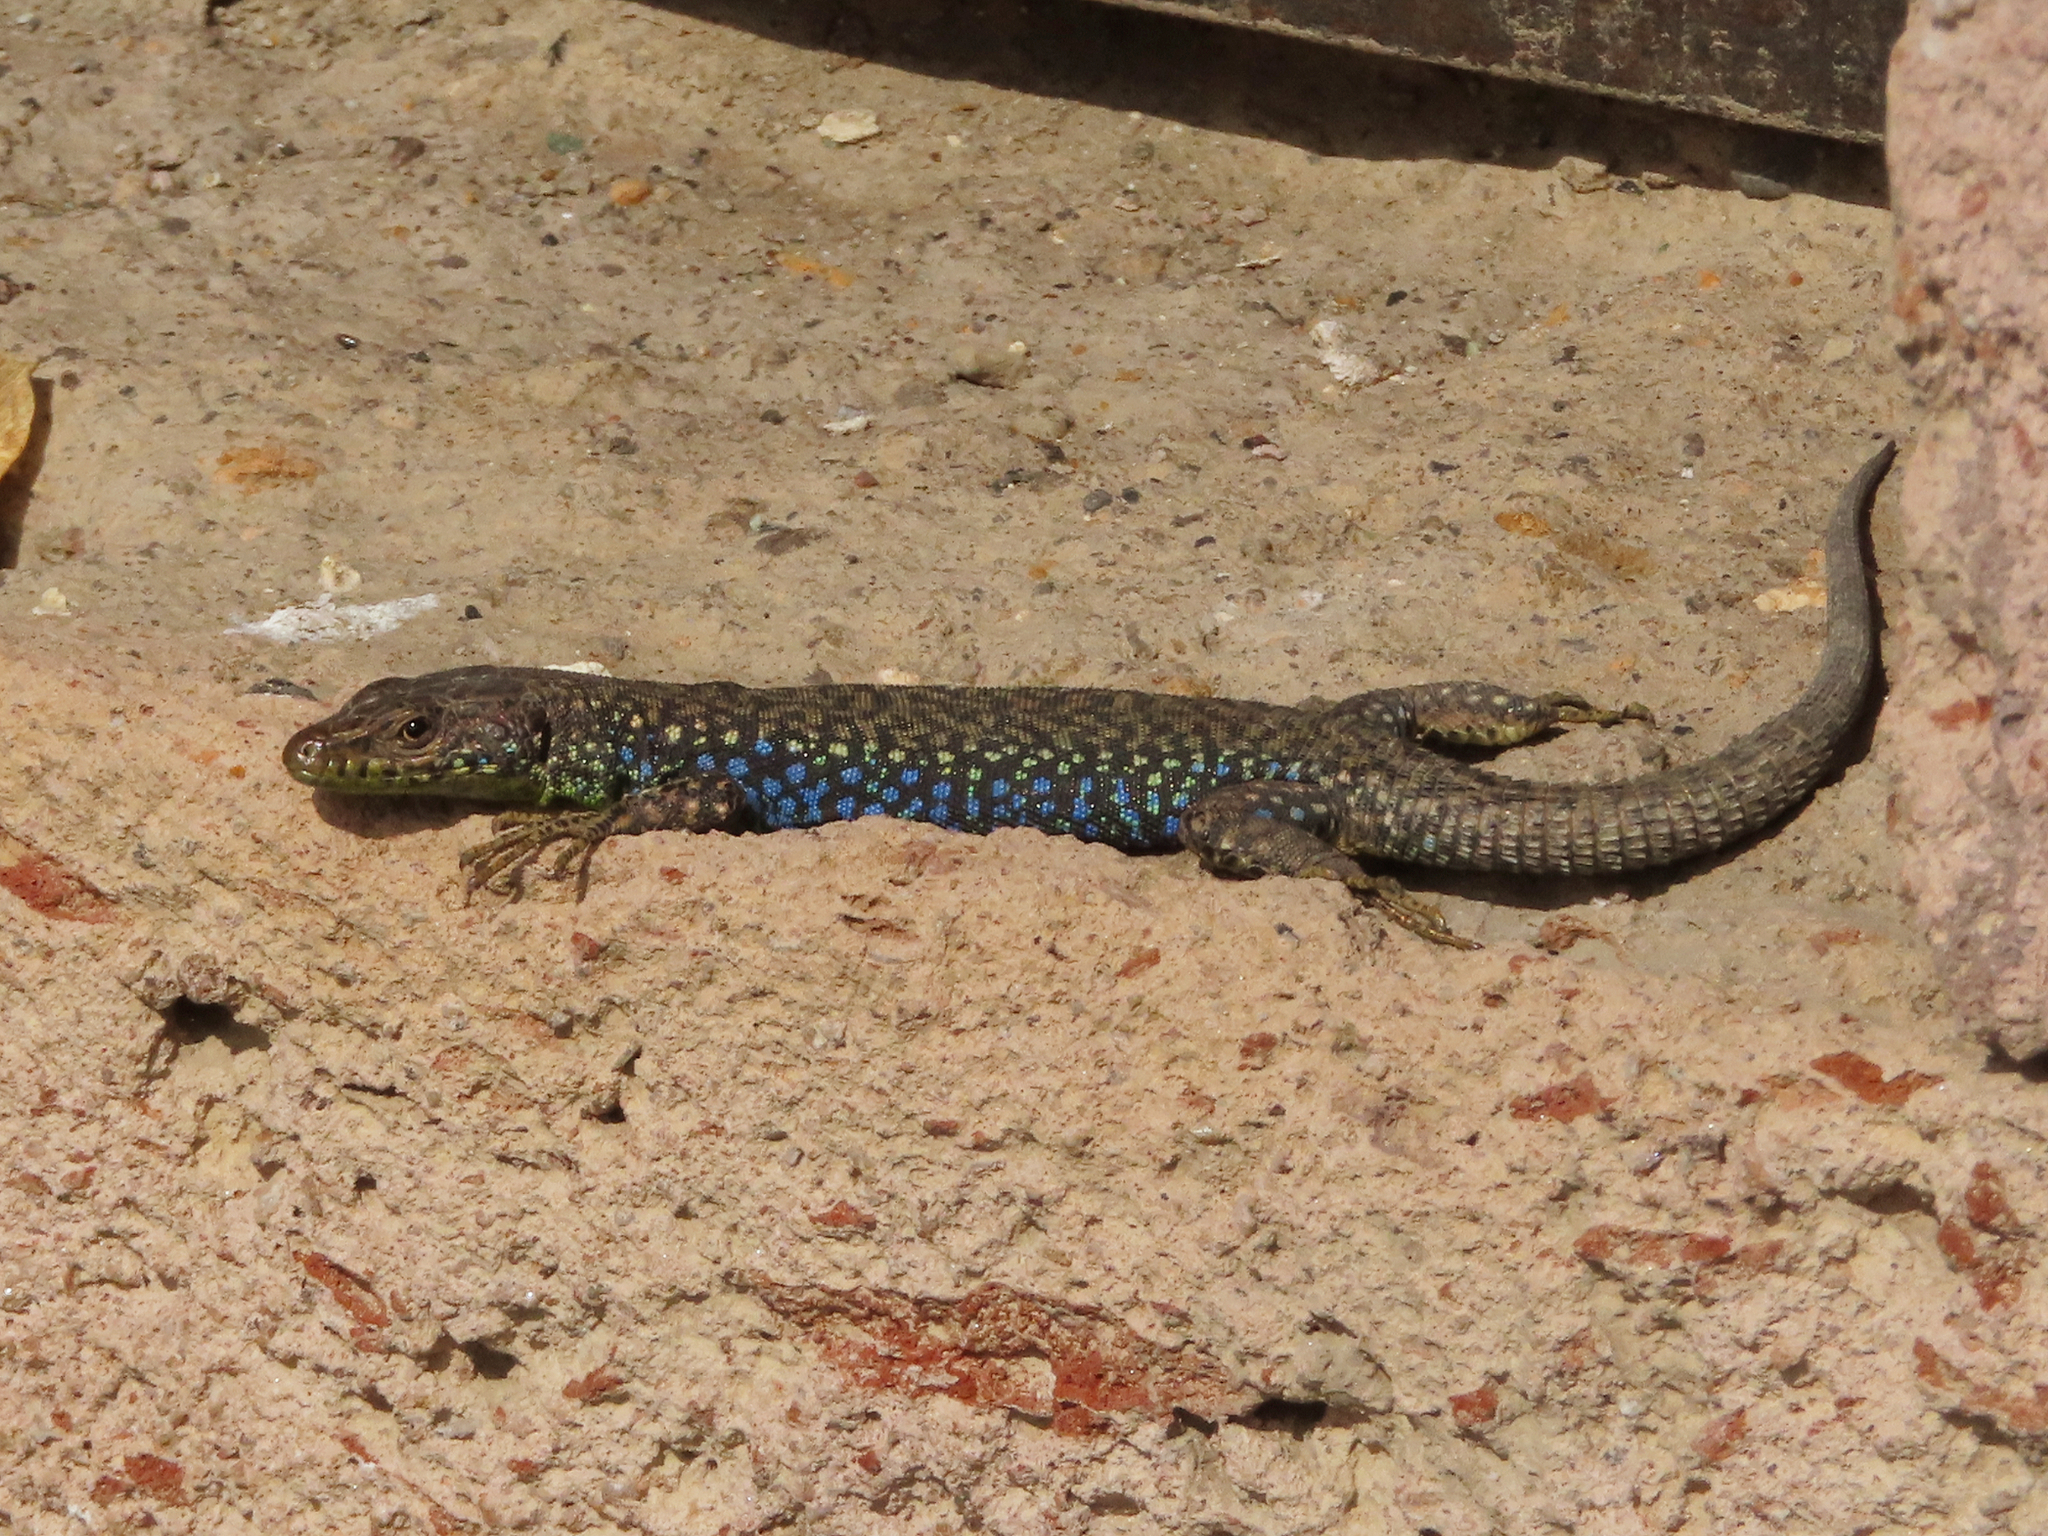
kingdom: Animalia
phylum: Chordata
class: Squamata
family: Lacertidae
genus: Darevskia
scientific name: Darevskia
